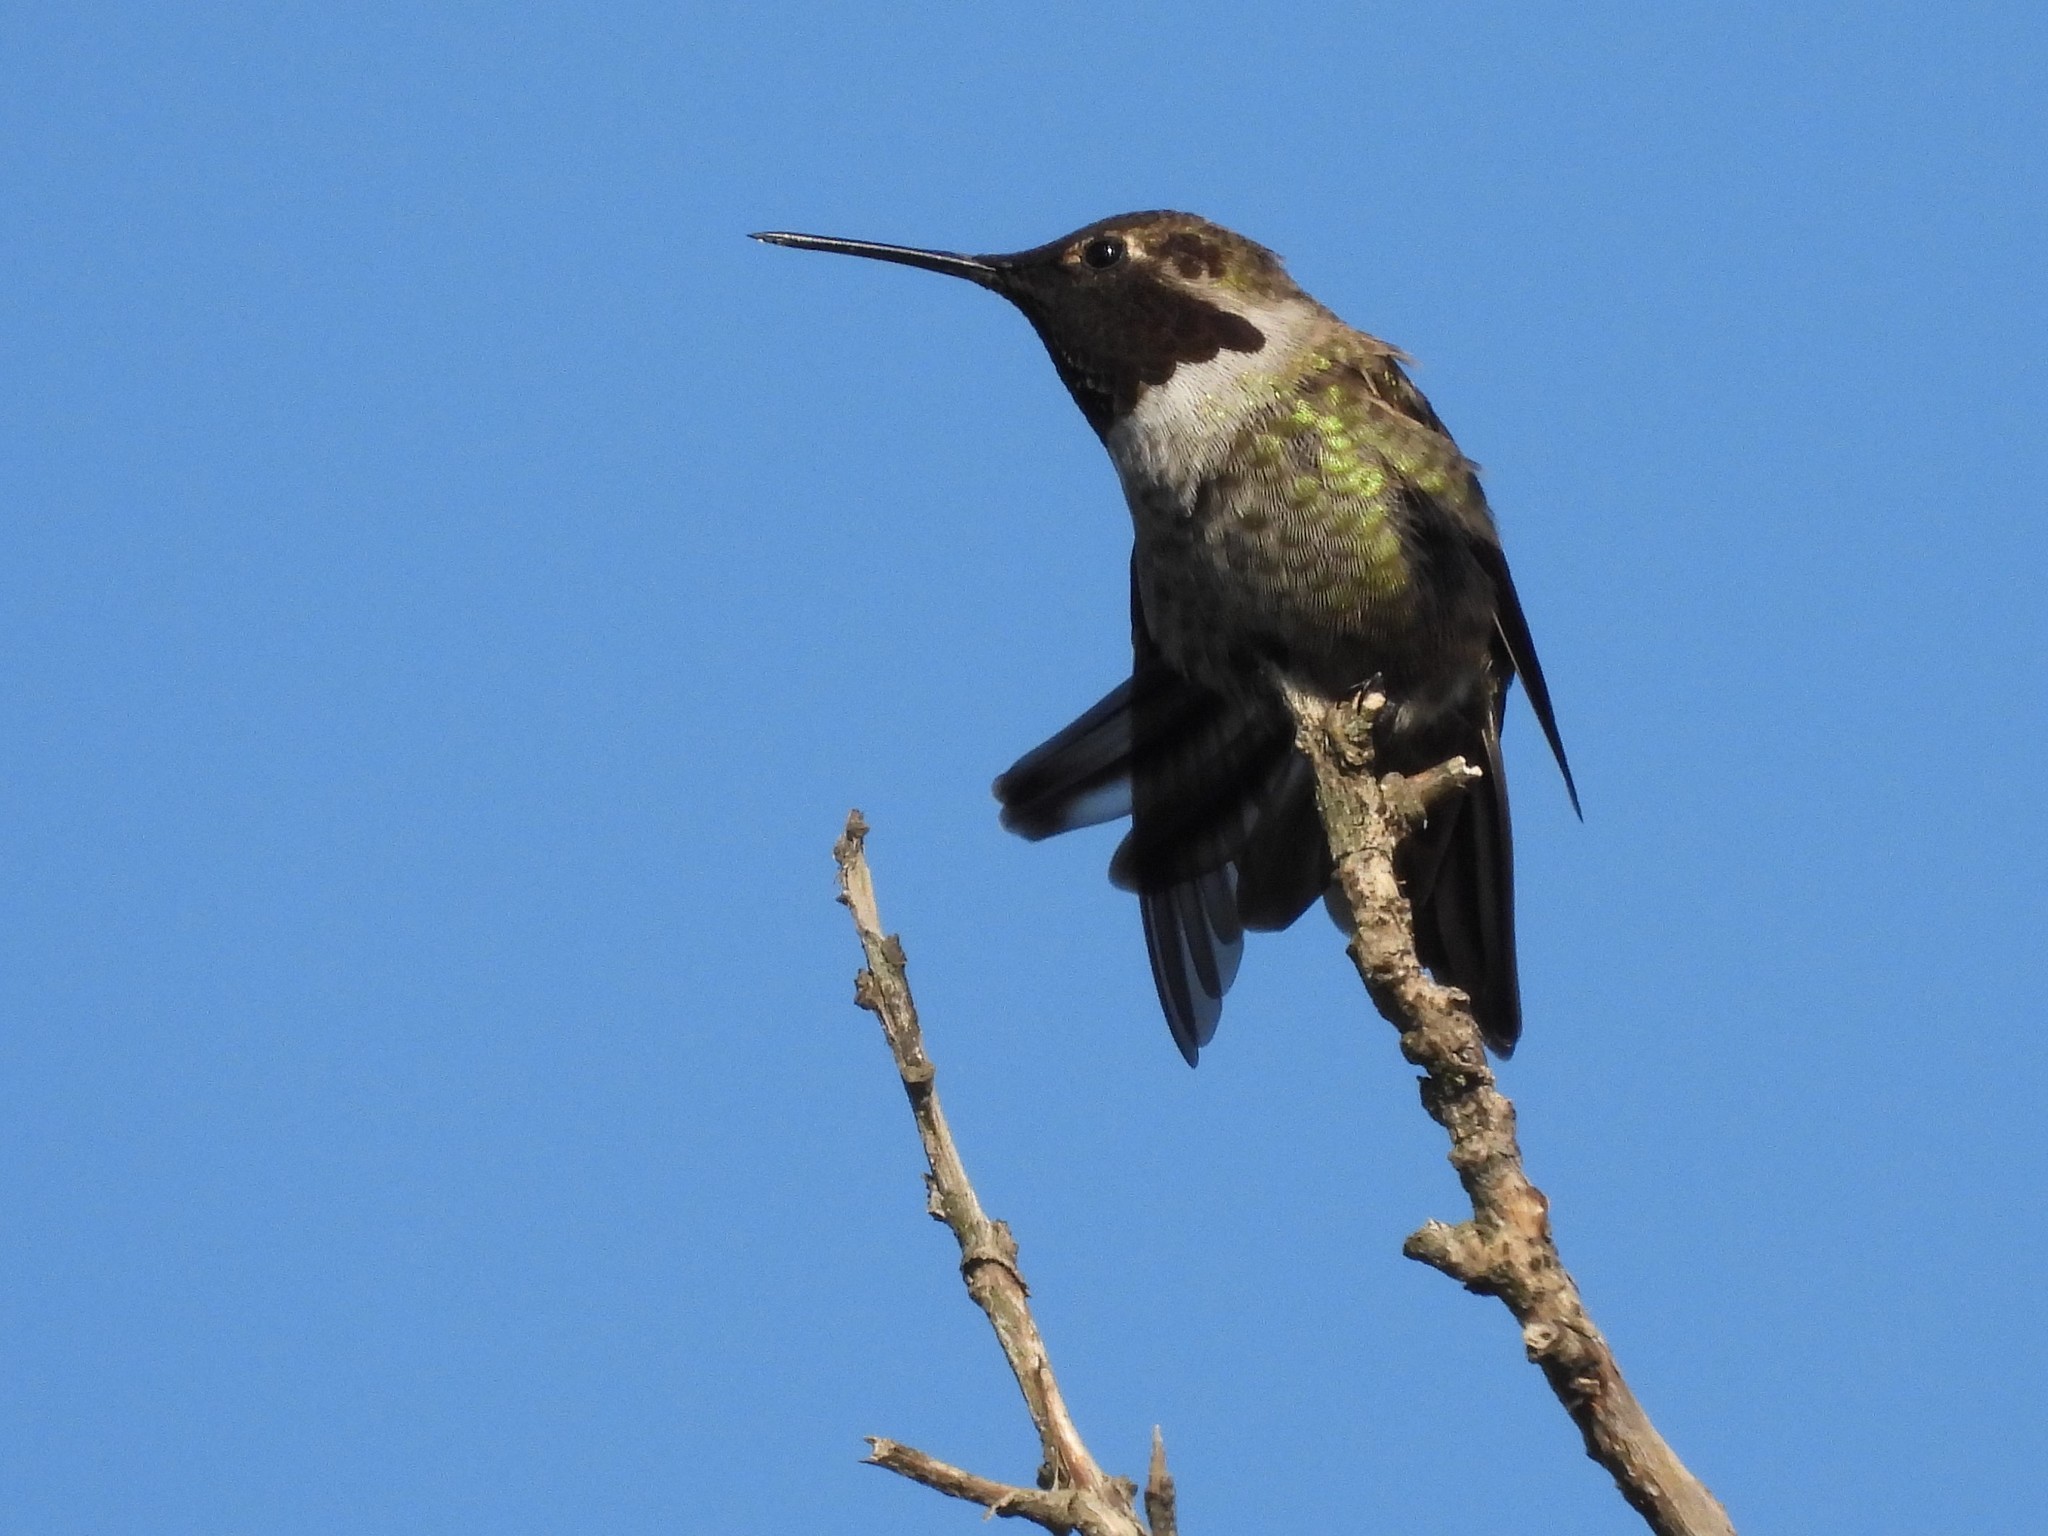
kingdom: Animalia
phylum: Chordata
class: Aves
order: Apodiformes
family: Trochilidae
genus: Calypte
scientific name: Calypte anna
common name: Anna's hummingbird
